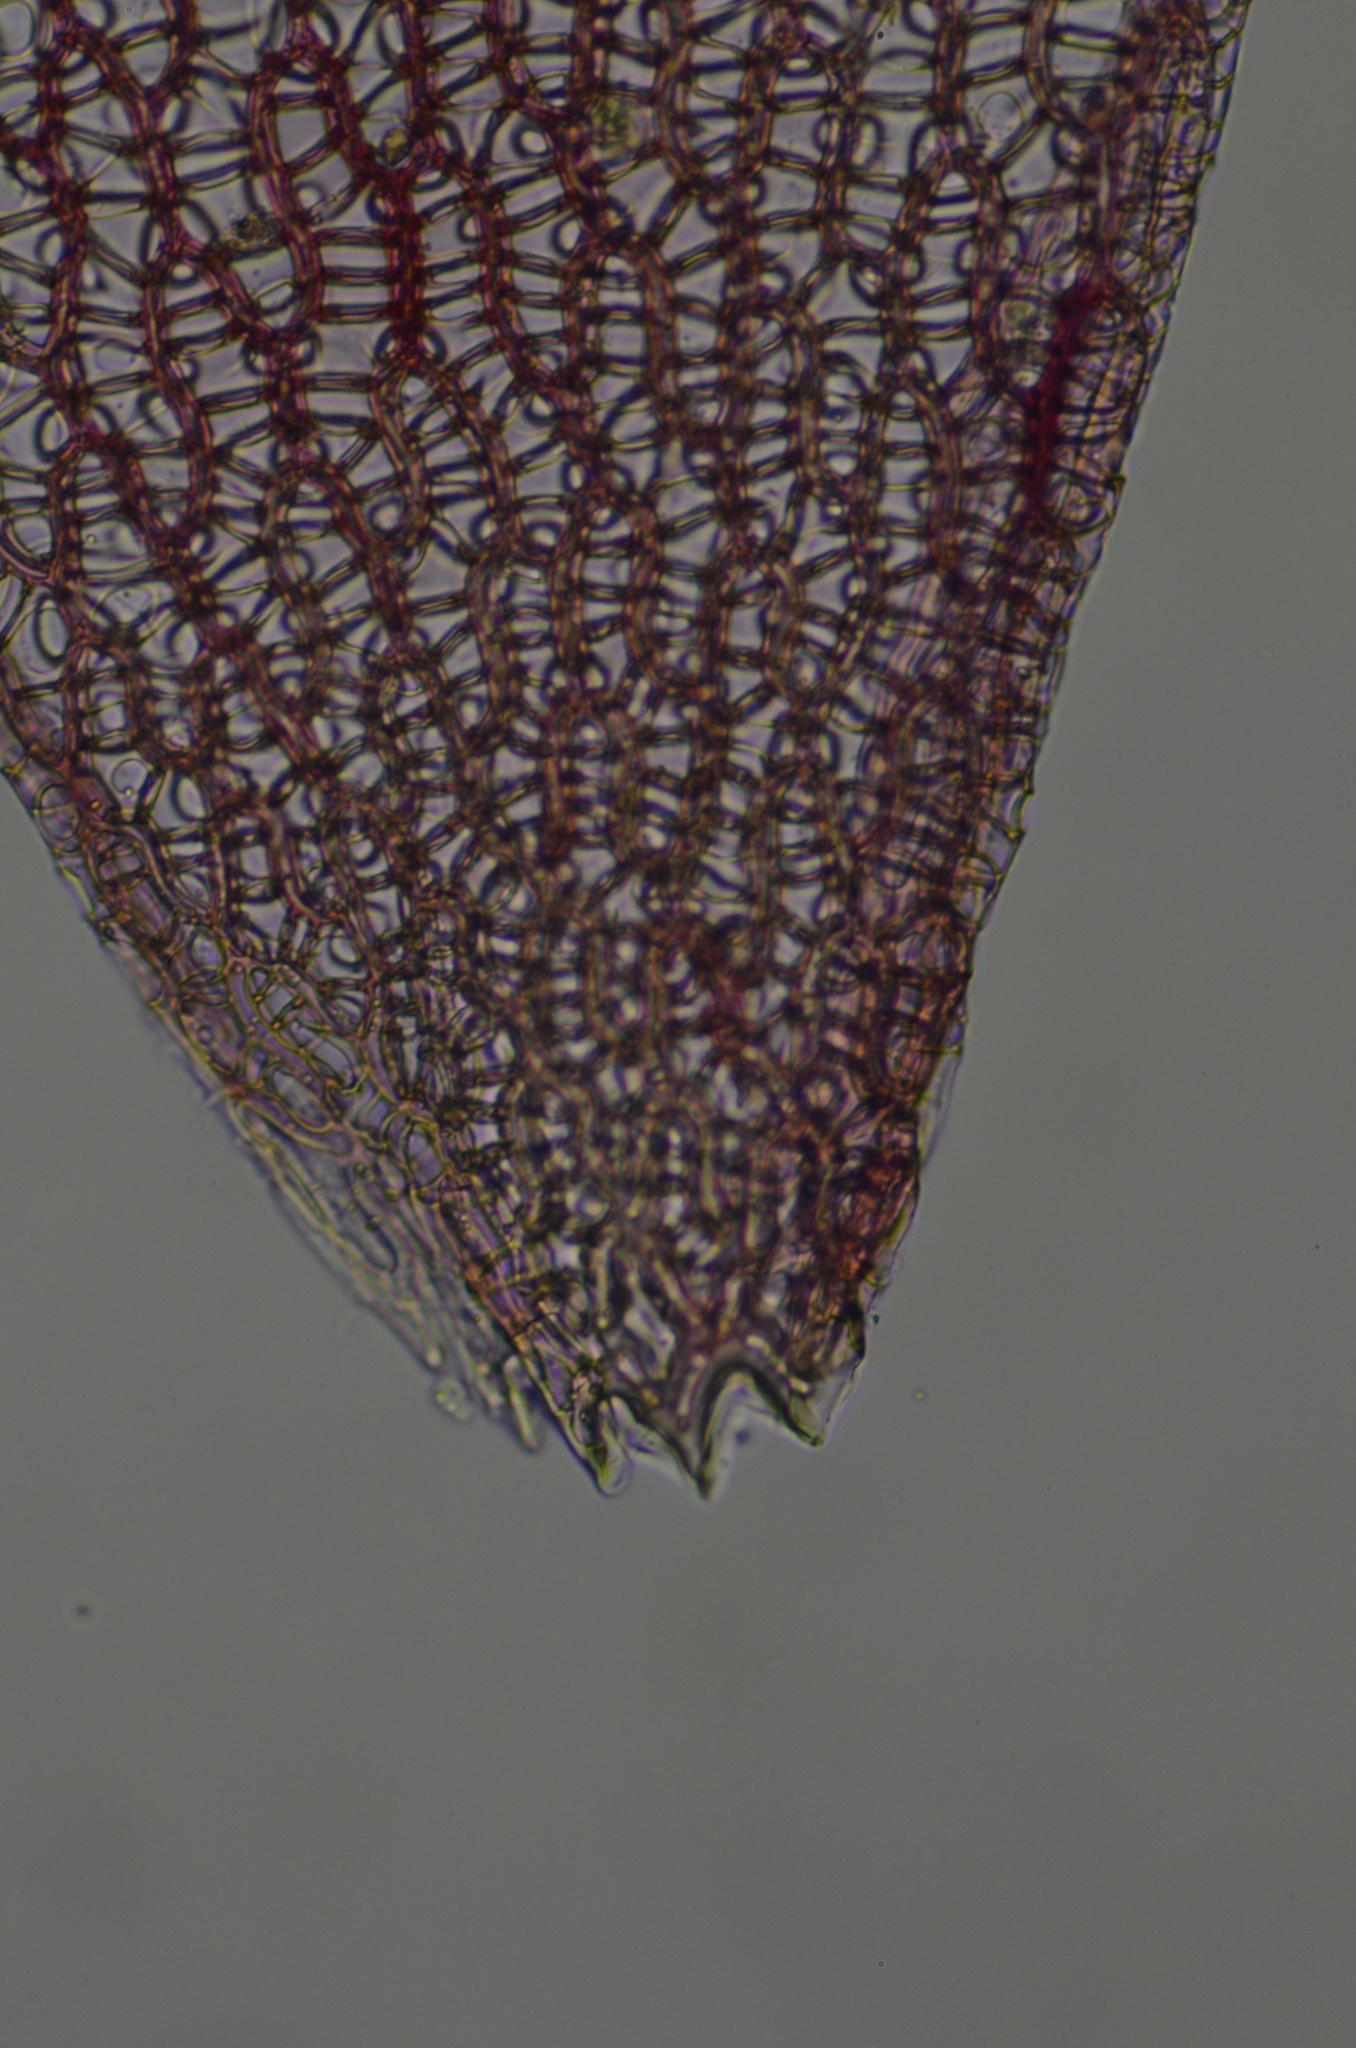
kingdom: Plantae
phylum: Bryophyta
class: Sphagnopsida
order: Sphagnales
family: Sphagnaceae
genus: Sphagnum
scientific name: Sphagnum rubellum
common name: Red peat moss
